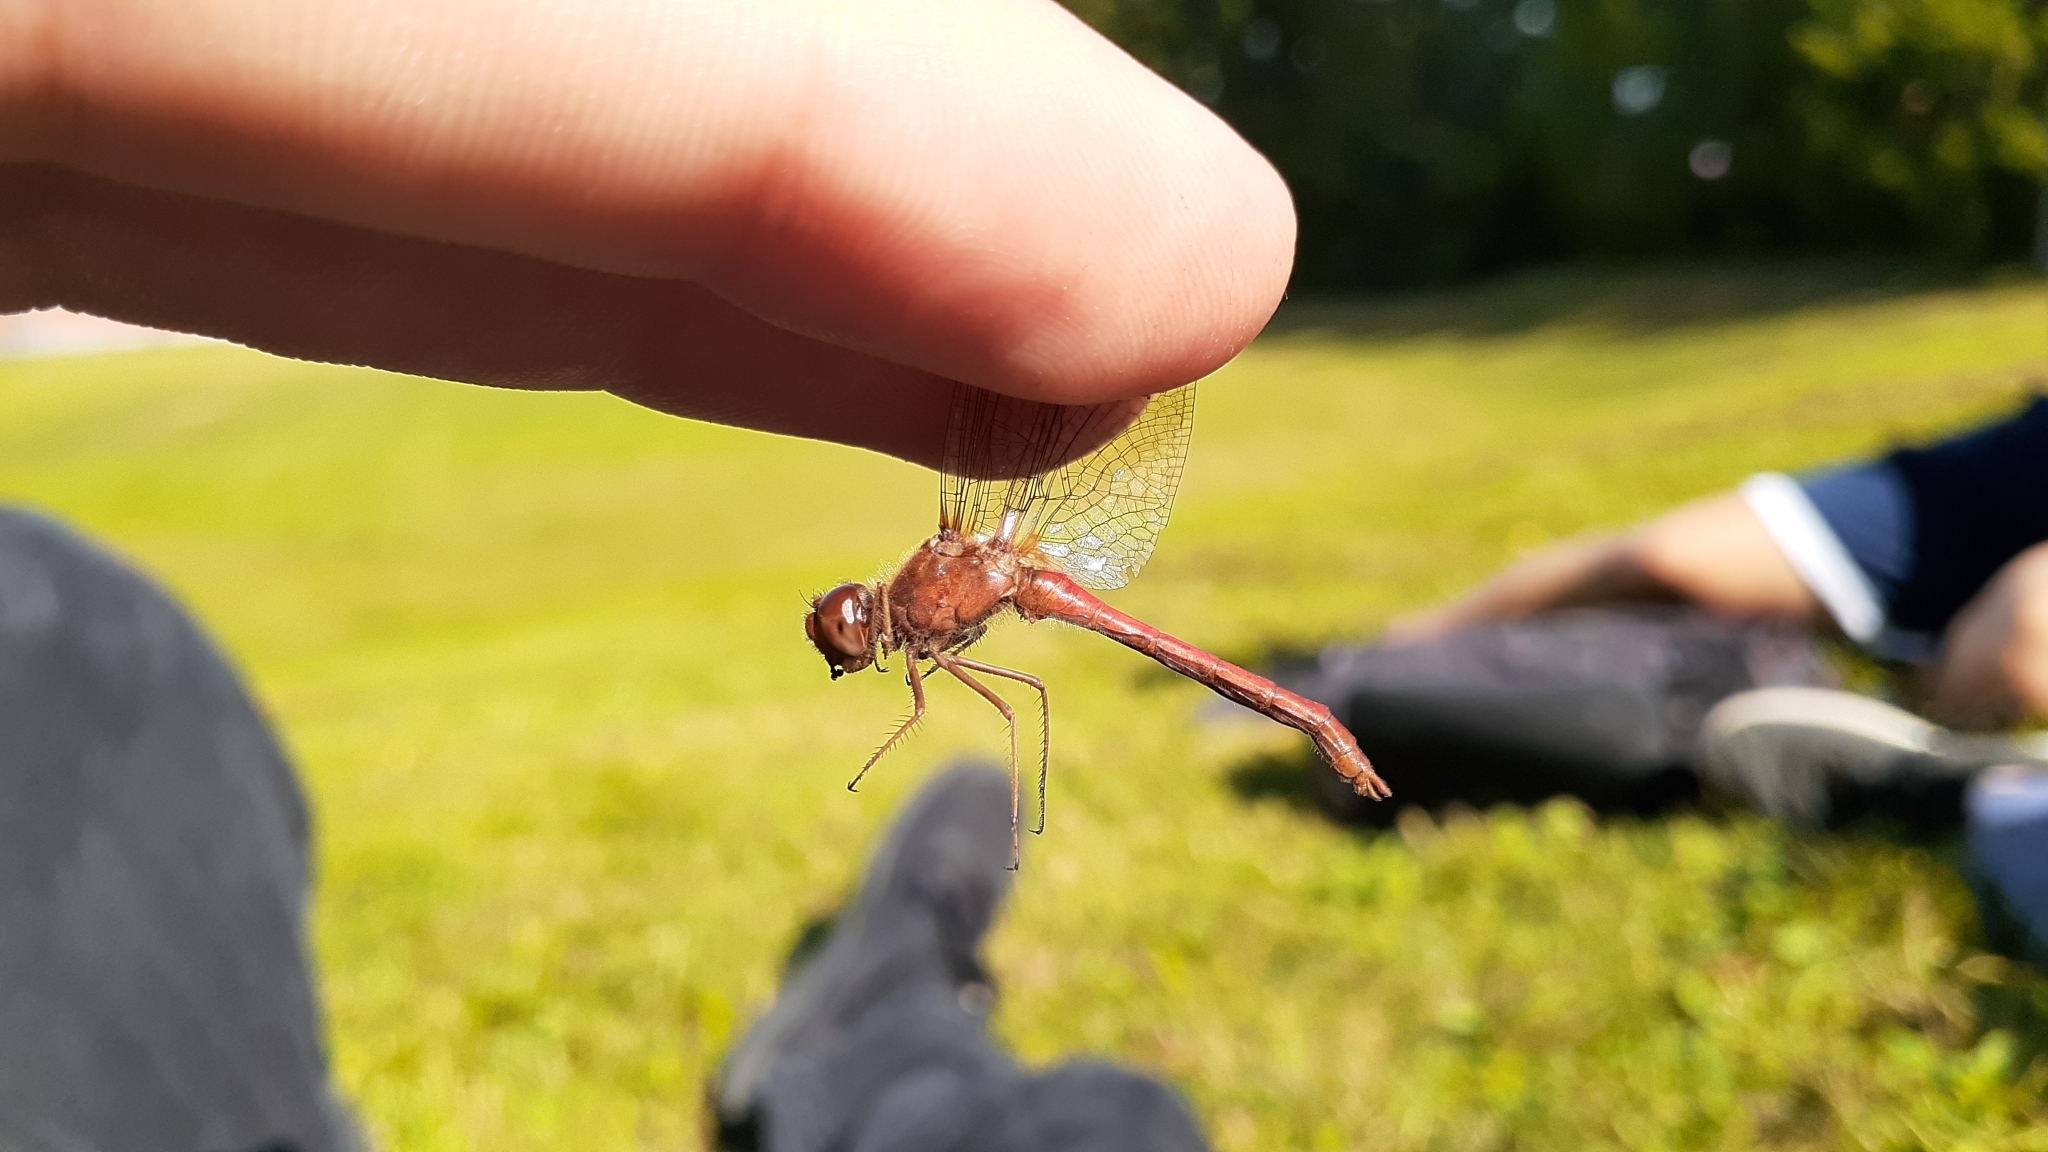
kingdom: Animalia
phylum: Arthropoda
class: Insecta
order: Odonata
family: Libellulidae
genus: Sympetrum
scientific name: Sympetrum vicinum
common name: Autumn meadowhawk
